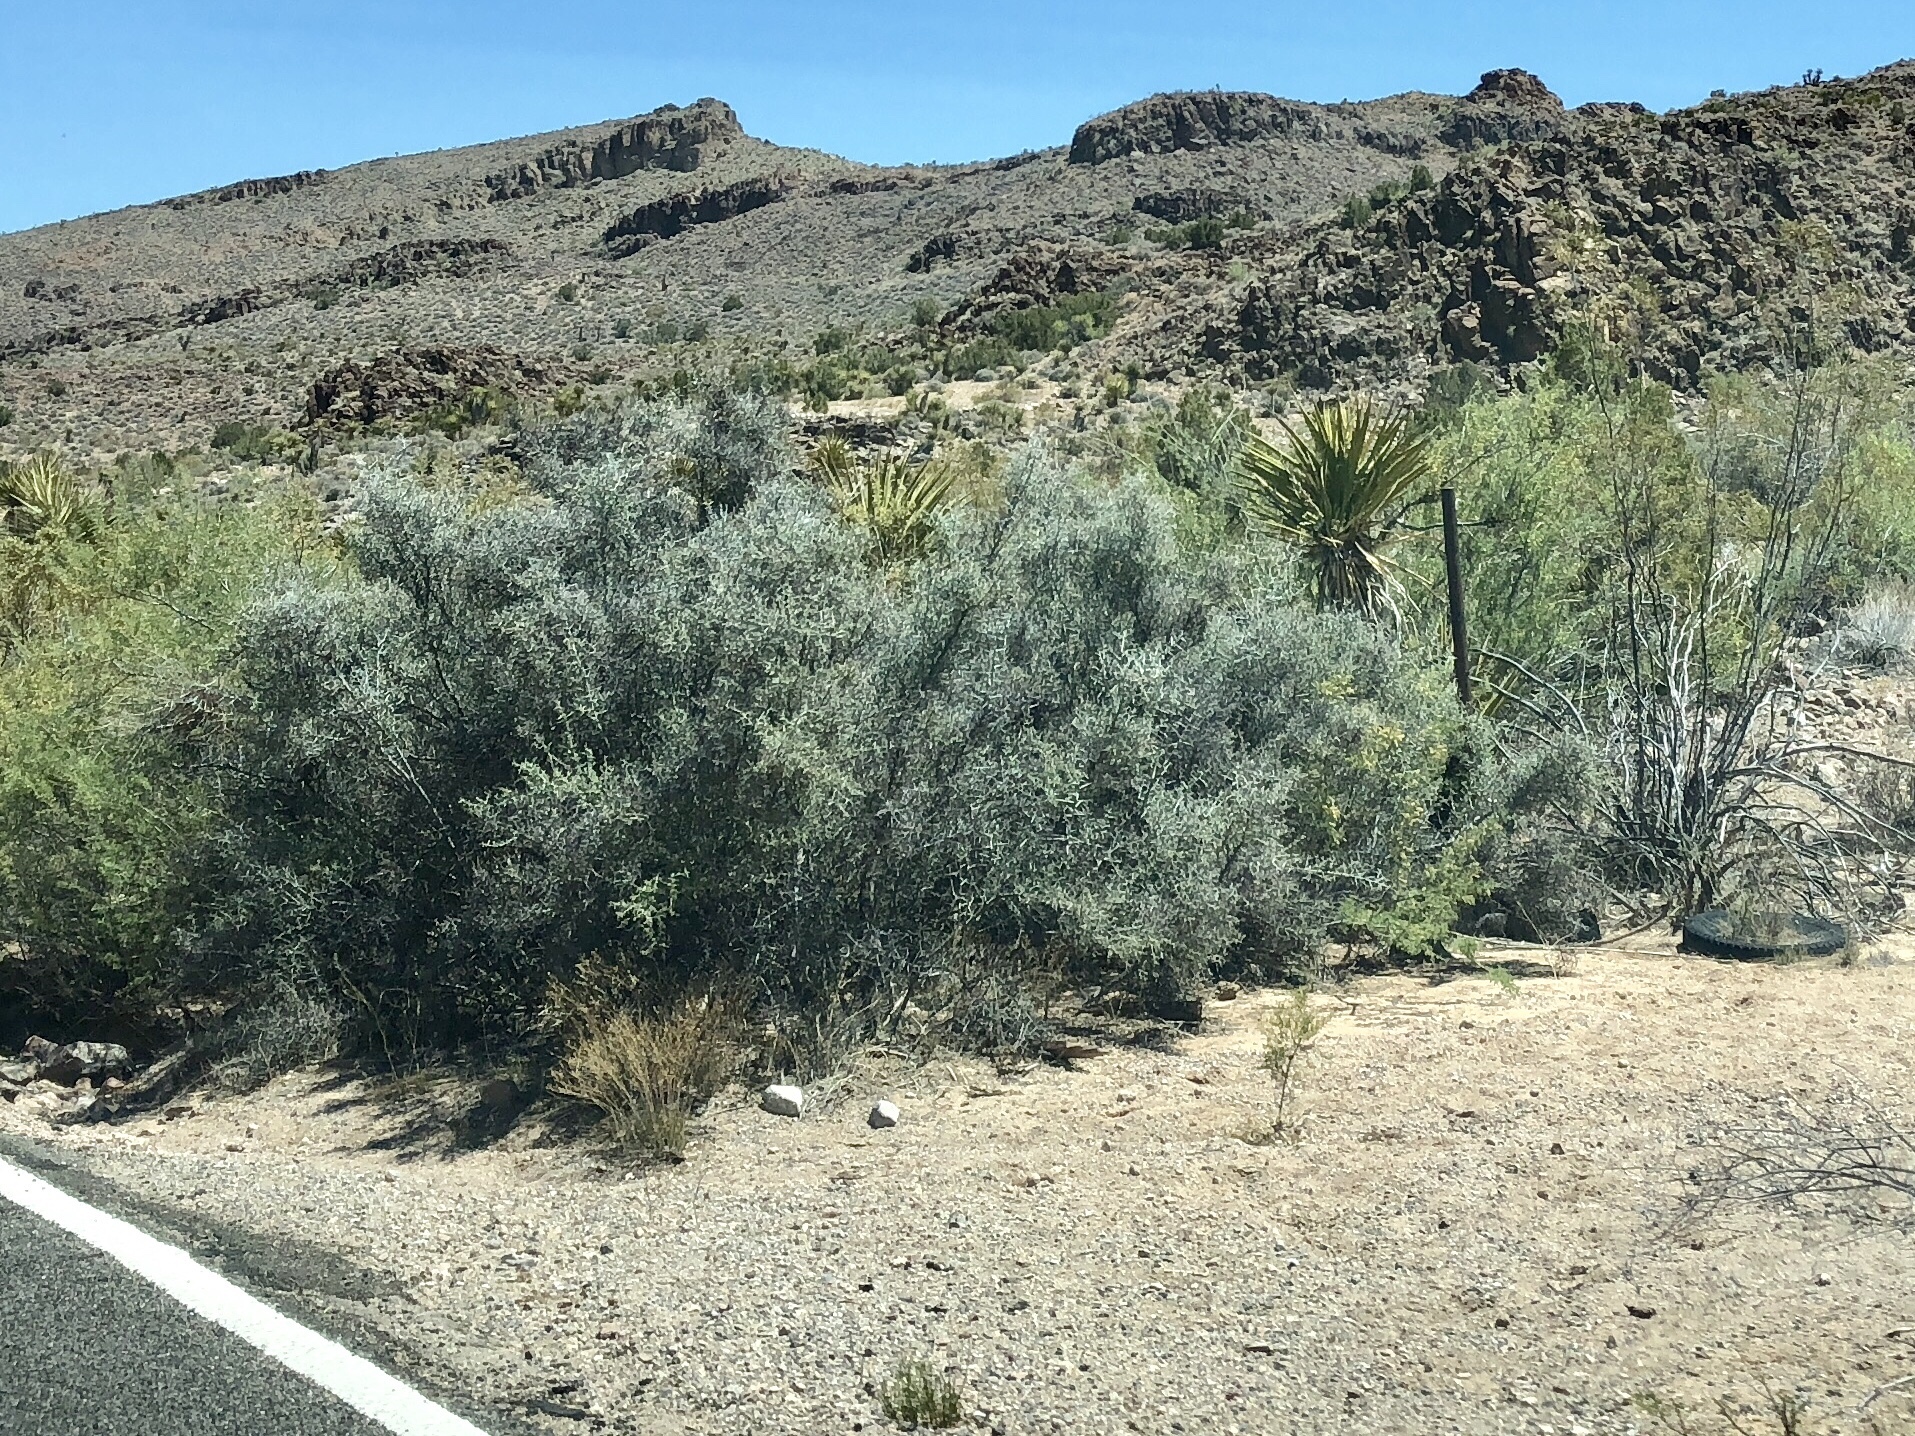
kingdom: Plantae
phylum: Tracheophyta
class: Magnoliopsida
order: Fabales
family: Fabaceae
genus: Psorothamnus
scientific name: Psorothamnus spinosus
